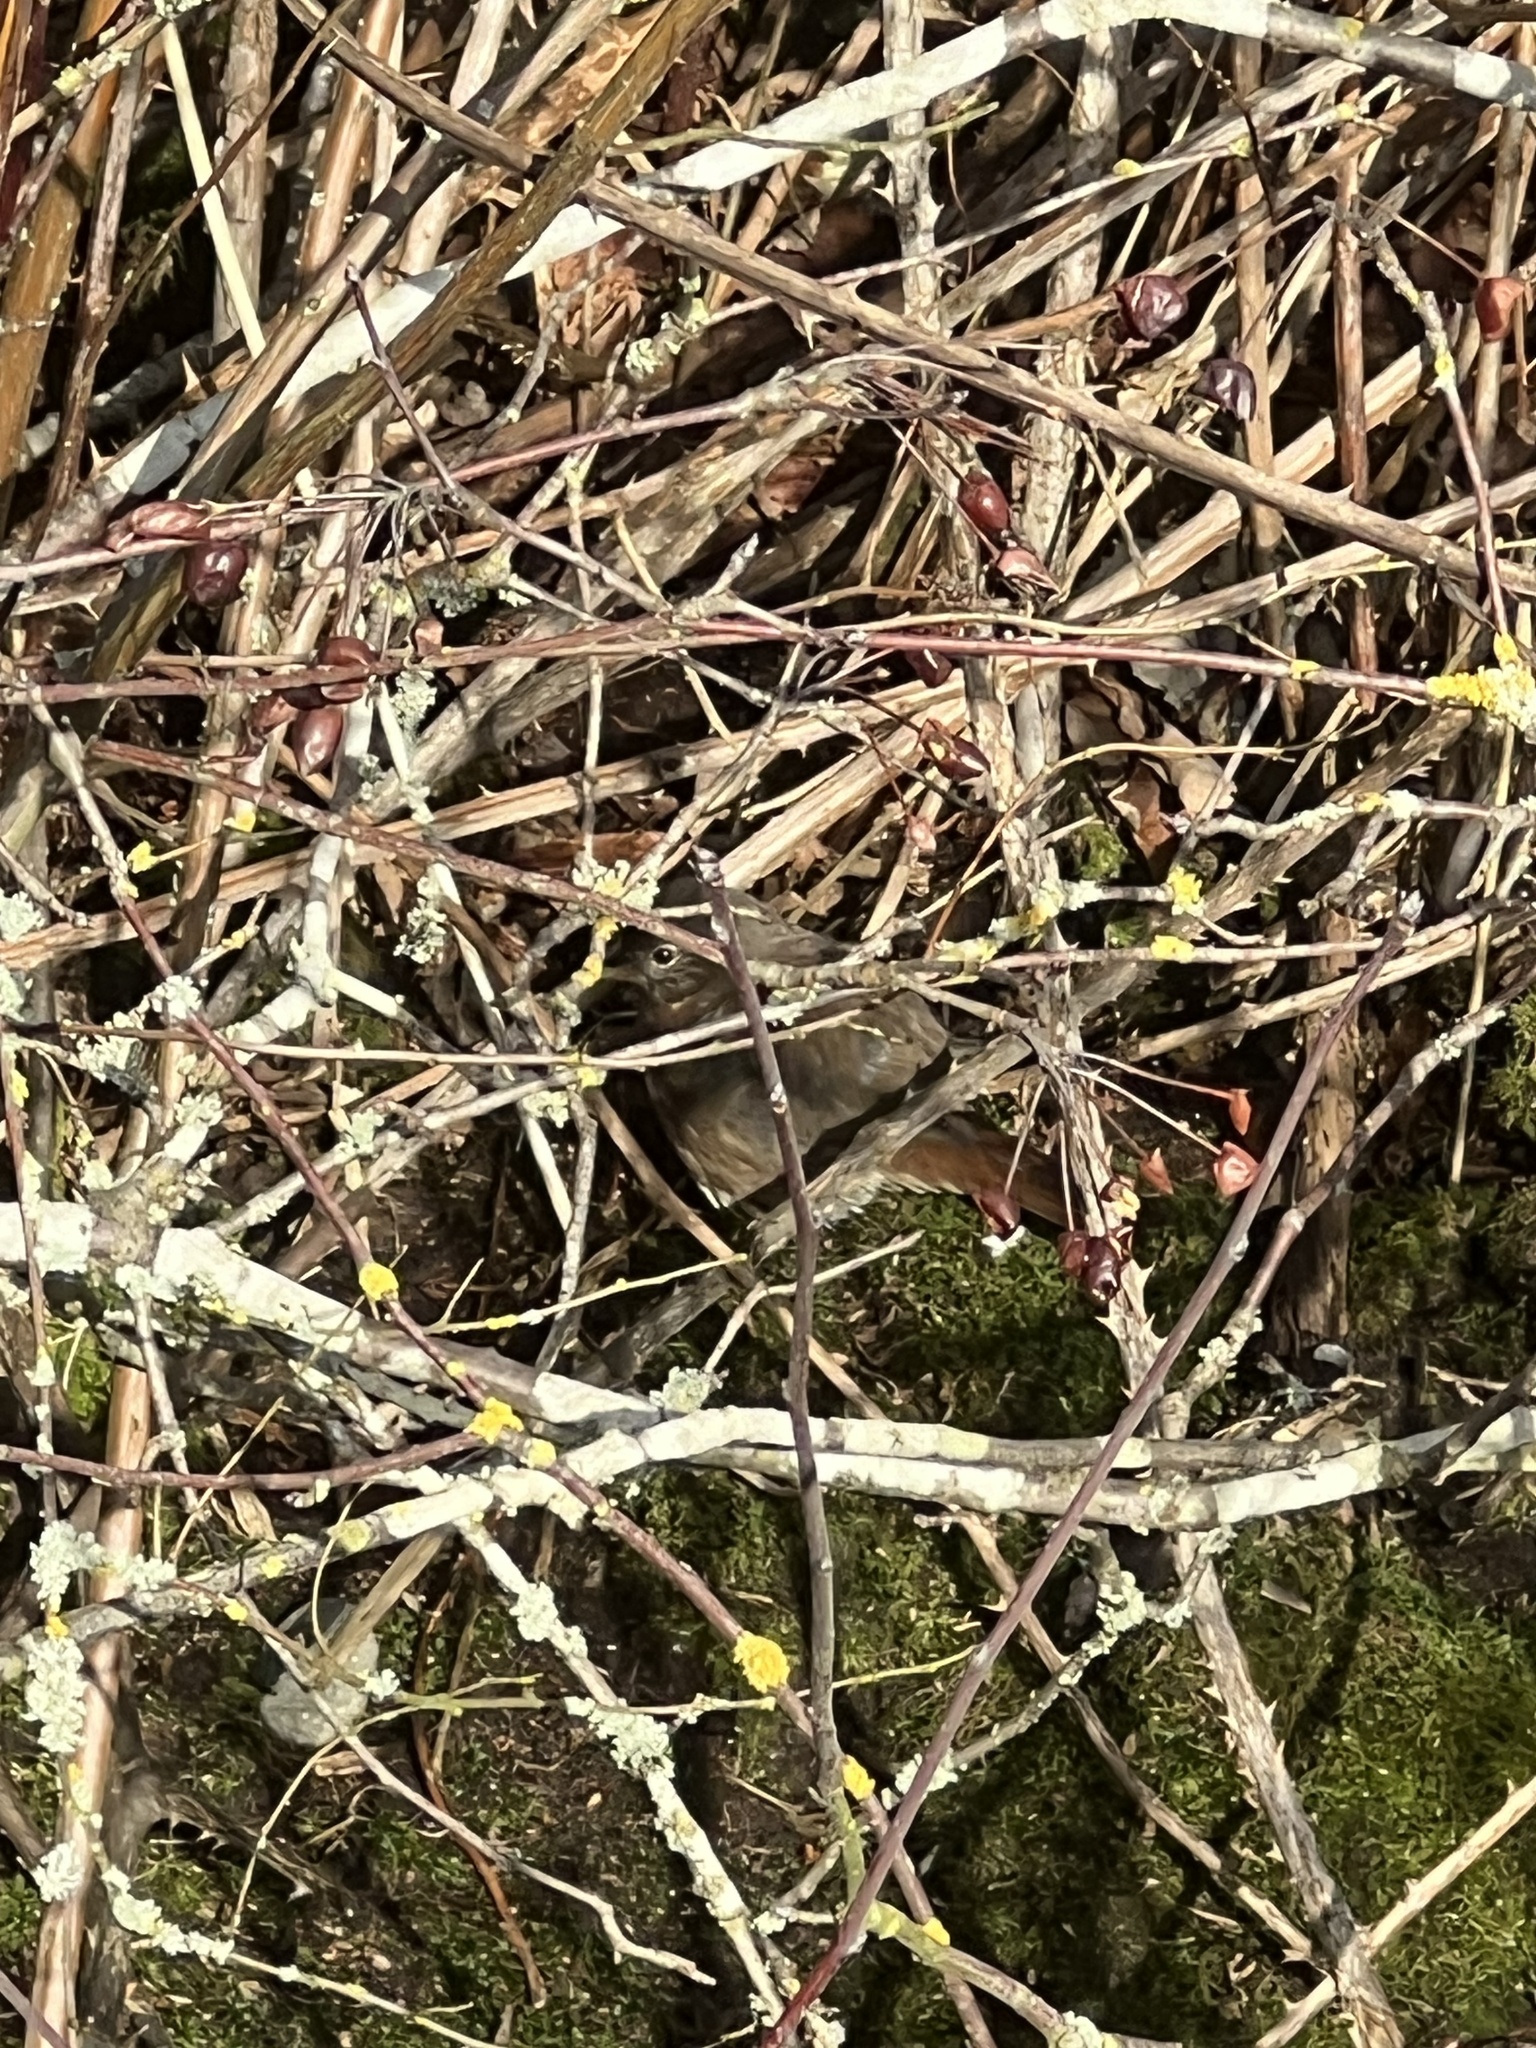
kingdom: Animalia
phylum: Chordata
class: Aves
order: Passeriformes
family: Passerellidae
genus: Passerella
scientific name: Passerella iliaca
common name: Fox sparrow
